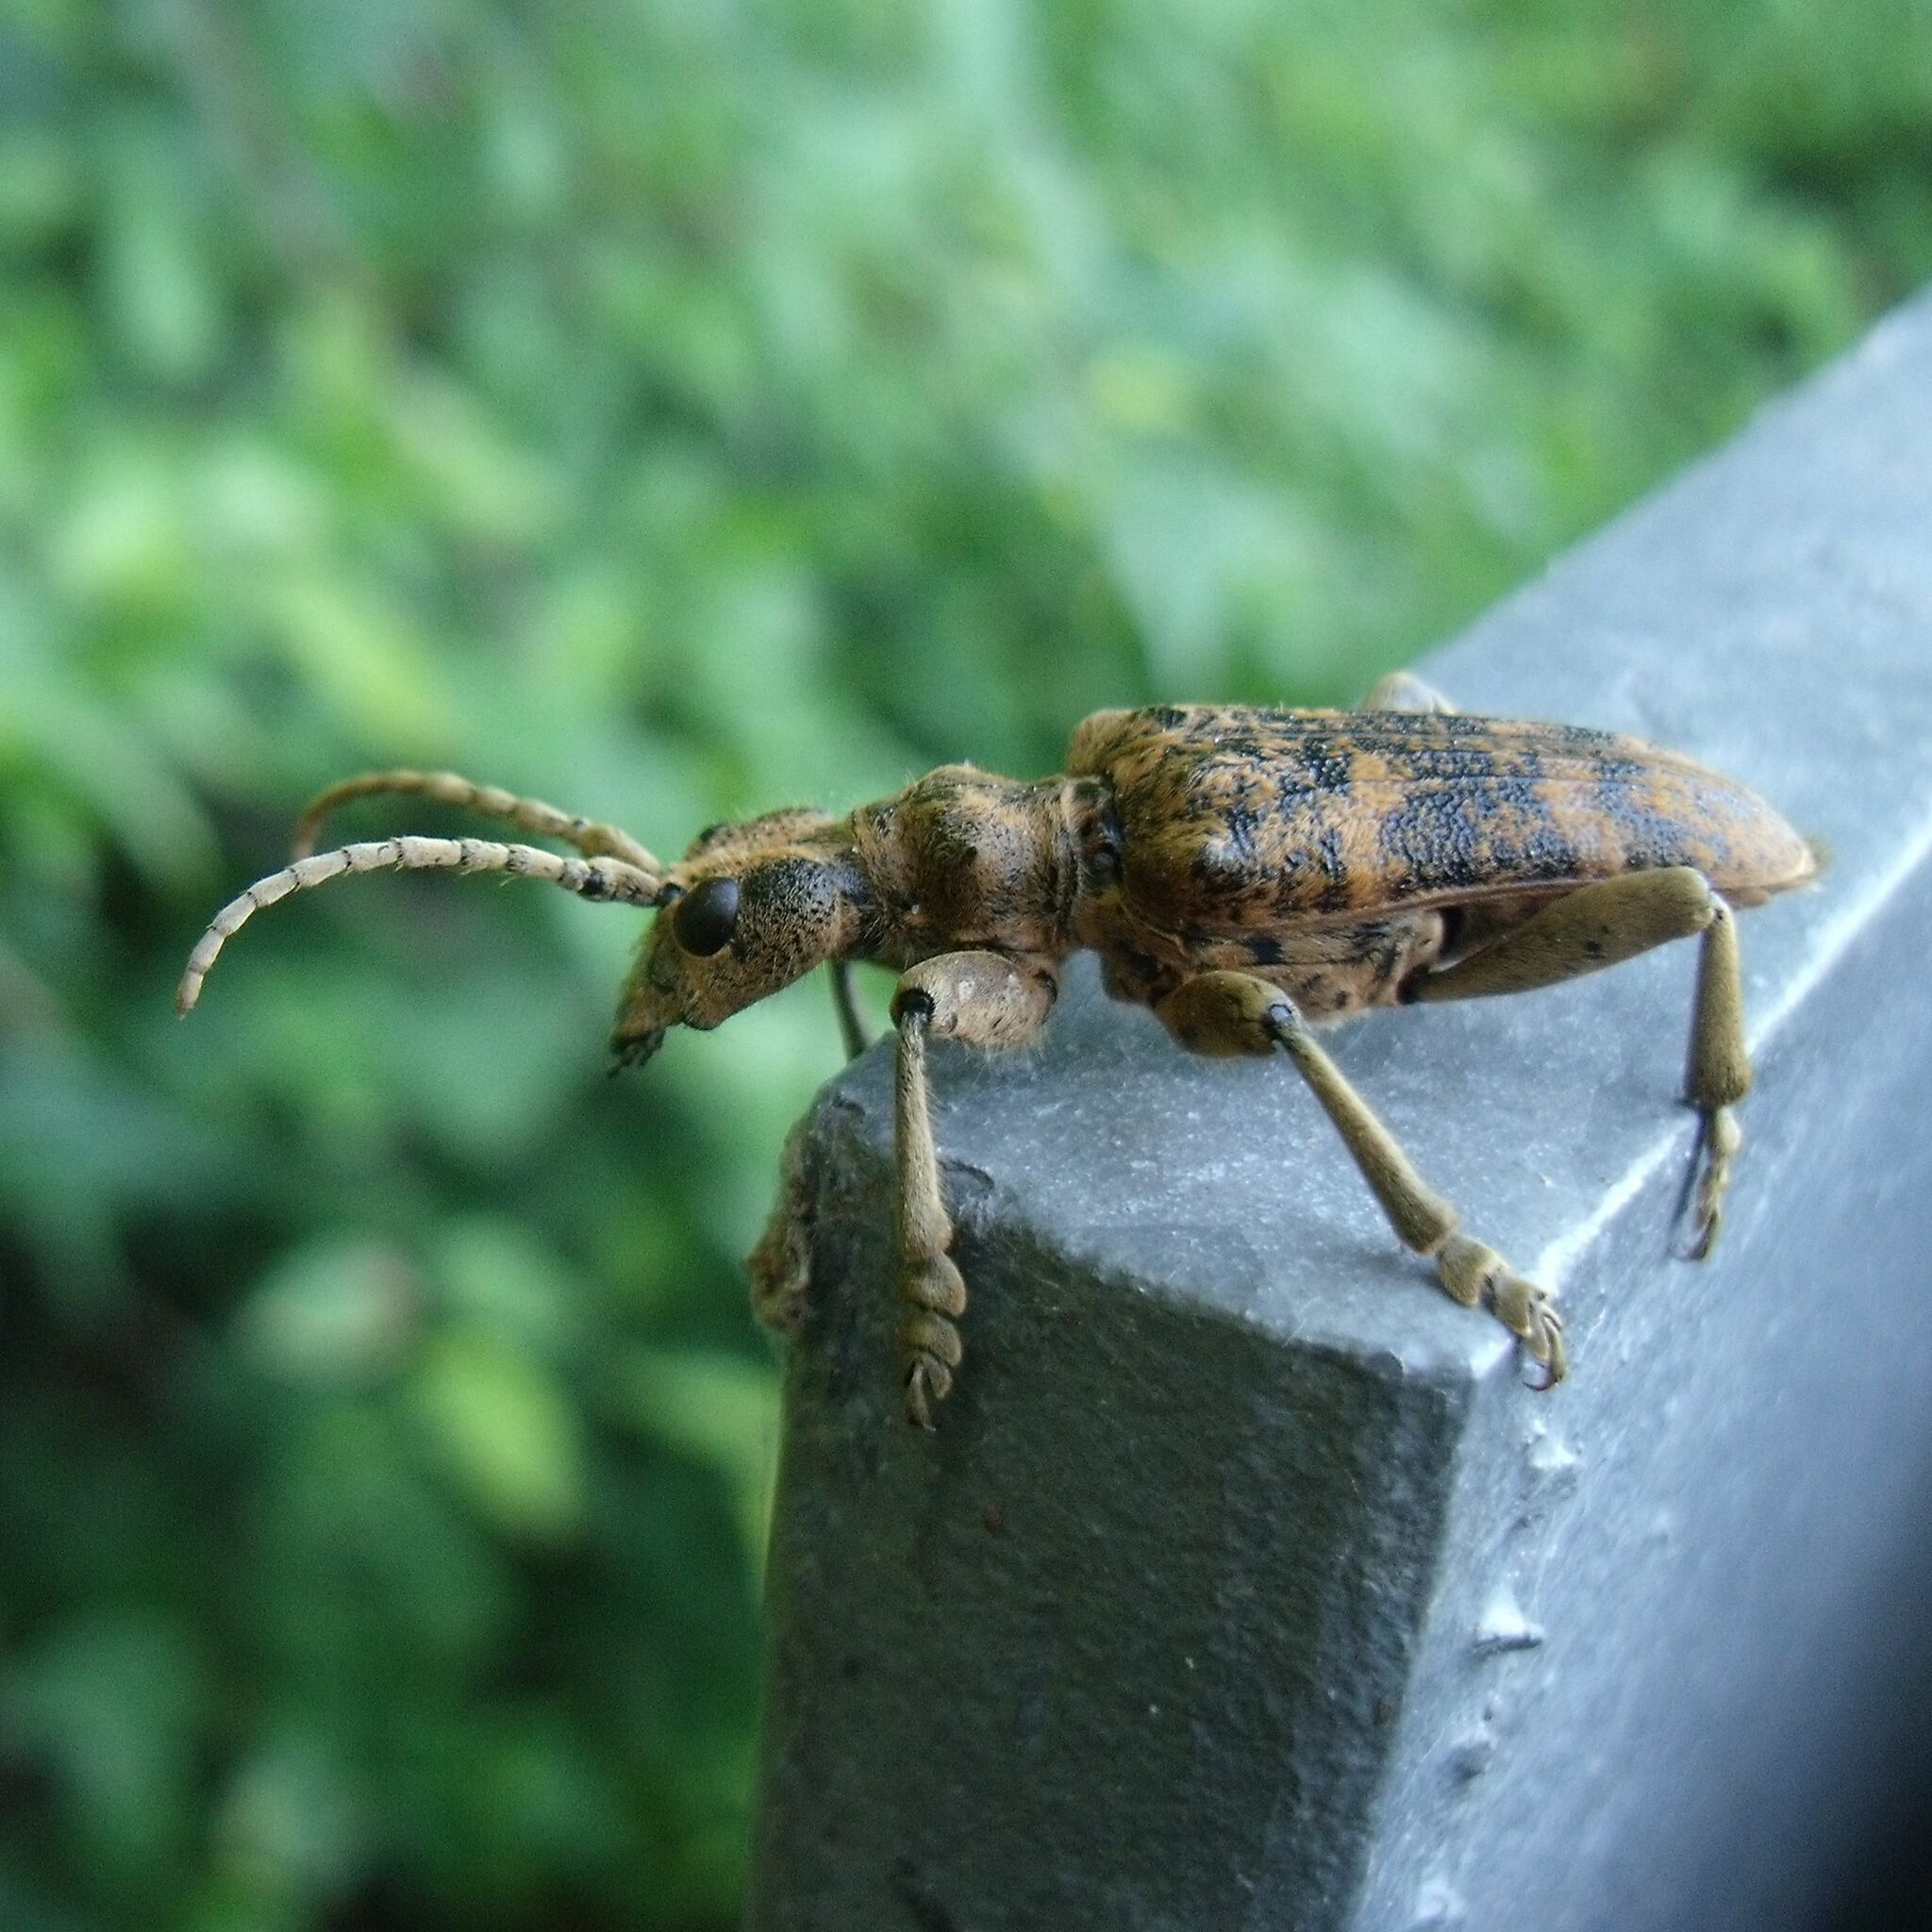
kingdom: Animalia
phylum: Arthropoda
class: Insecta
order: Coleoptera
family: Cerambycidae
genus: Rhagium
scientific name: Rhagium sycophanta
